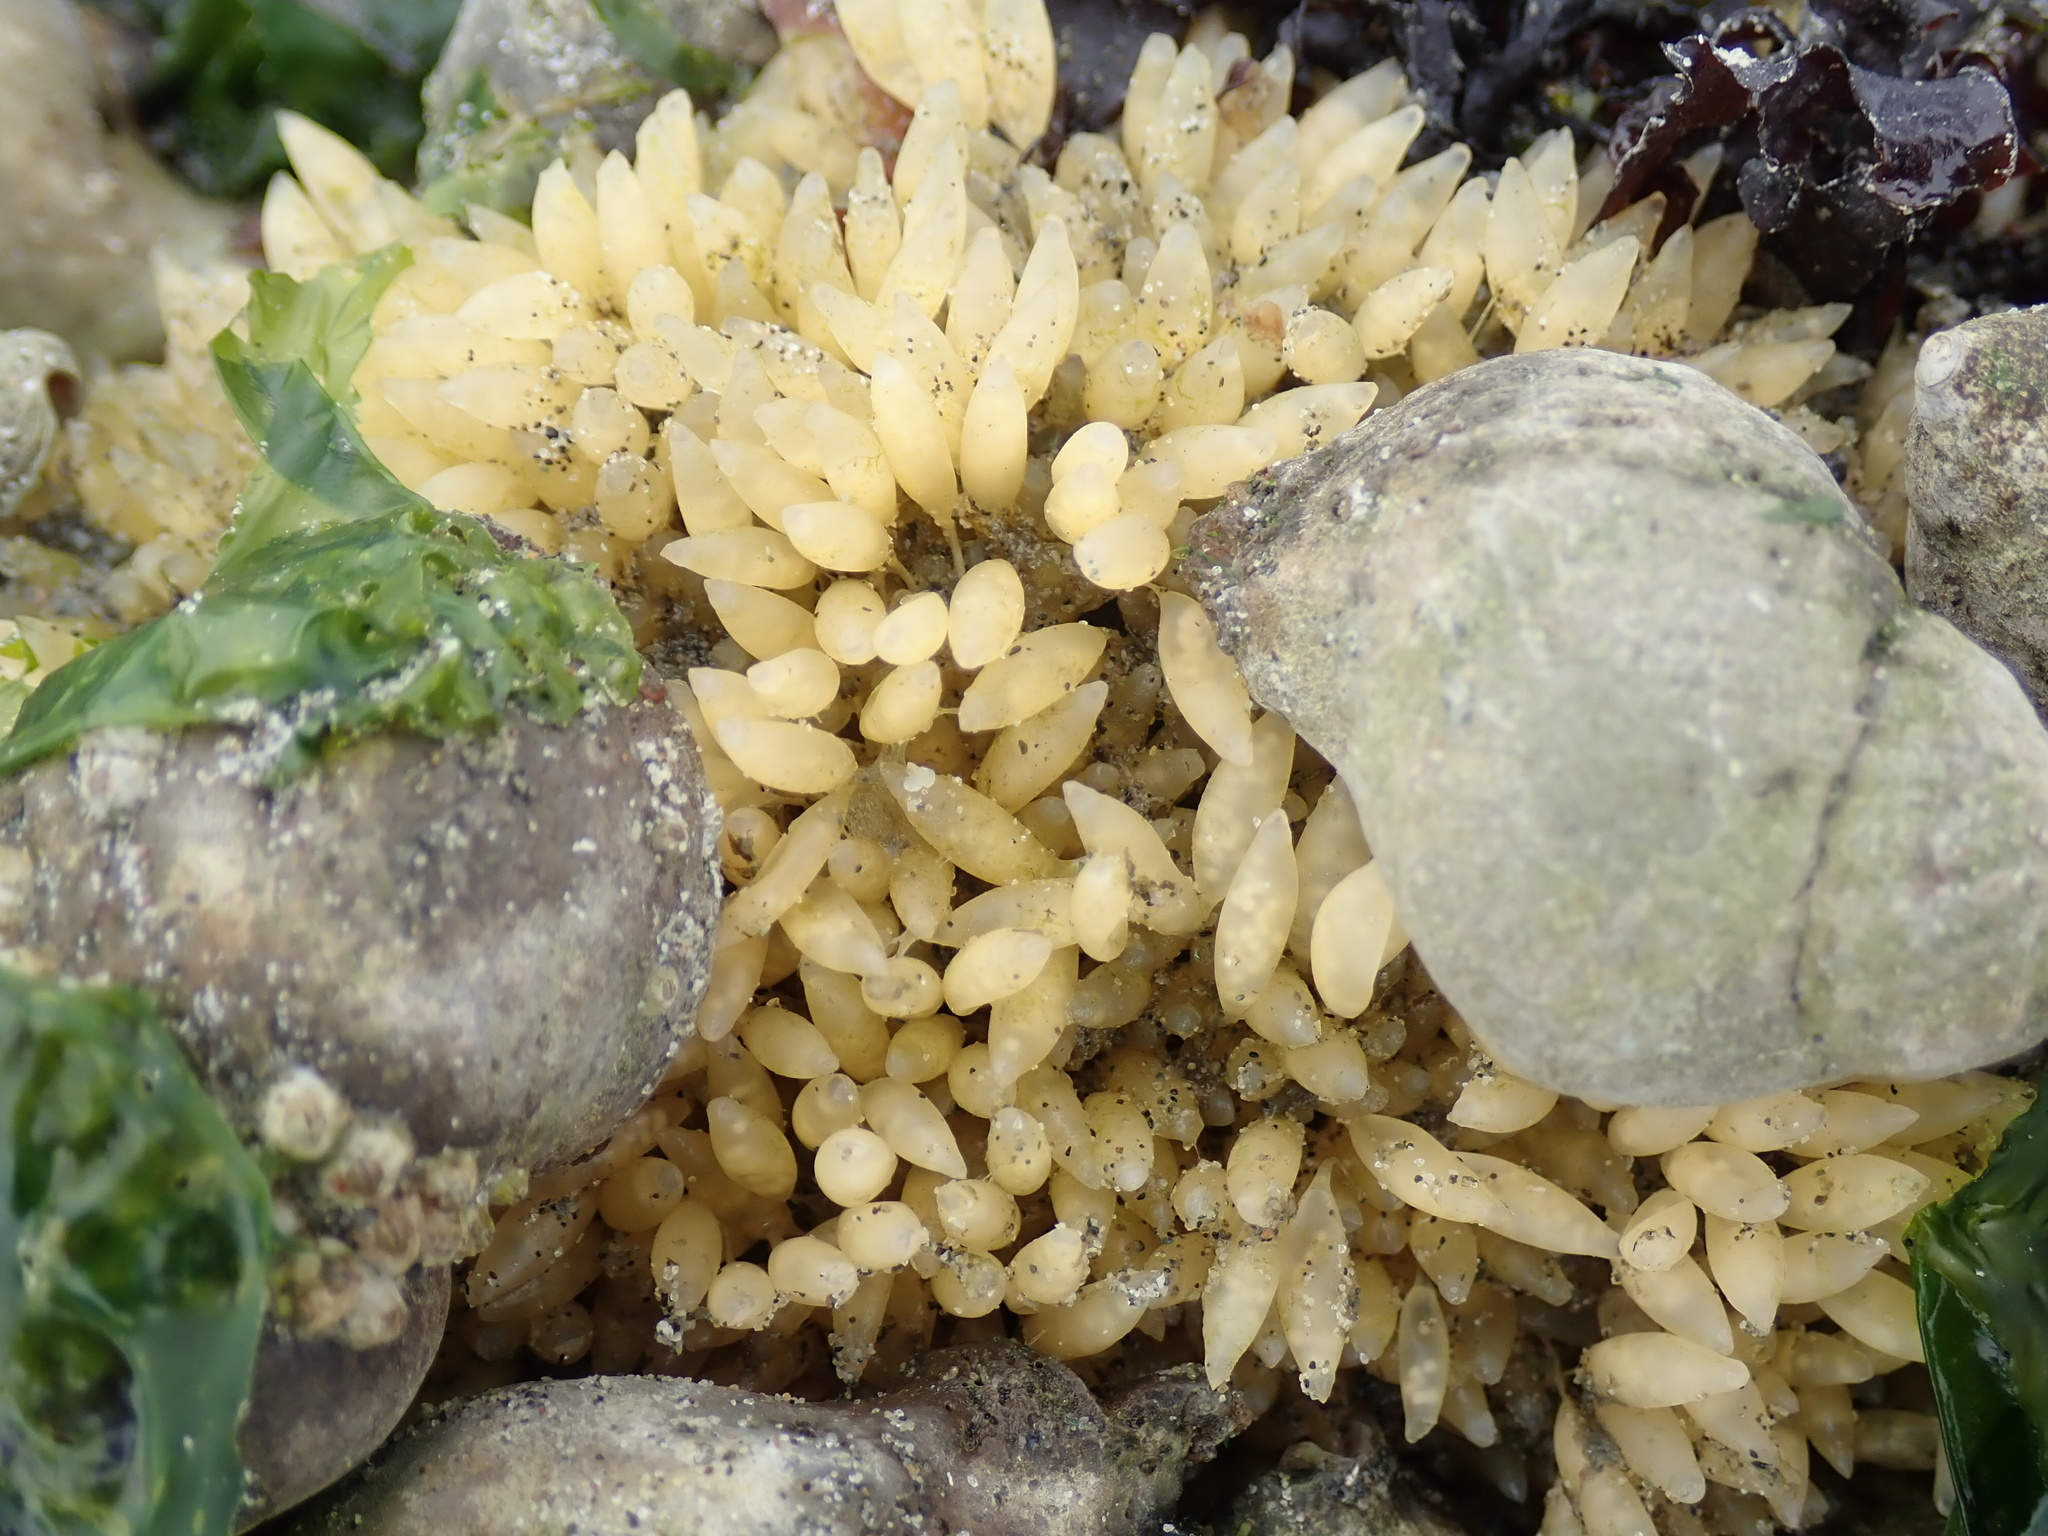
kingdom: Animalia
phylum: Mollusca
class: Gastropoda
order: Neogastropoda
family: Muricidae
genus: Nucella
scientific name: Nucella lamellosa
